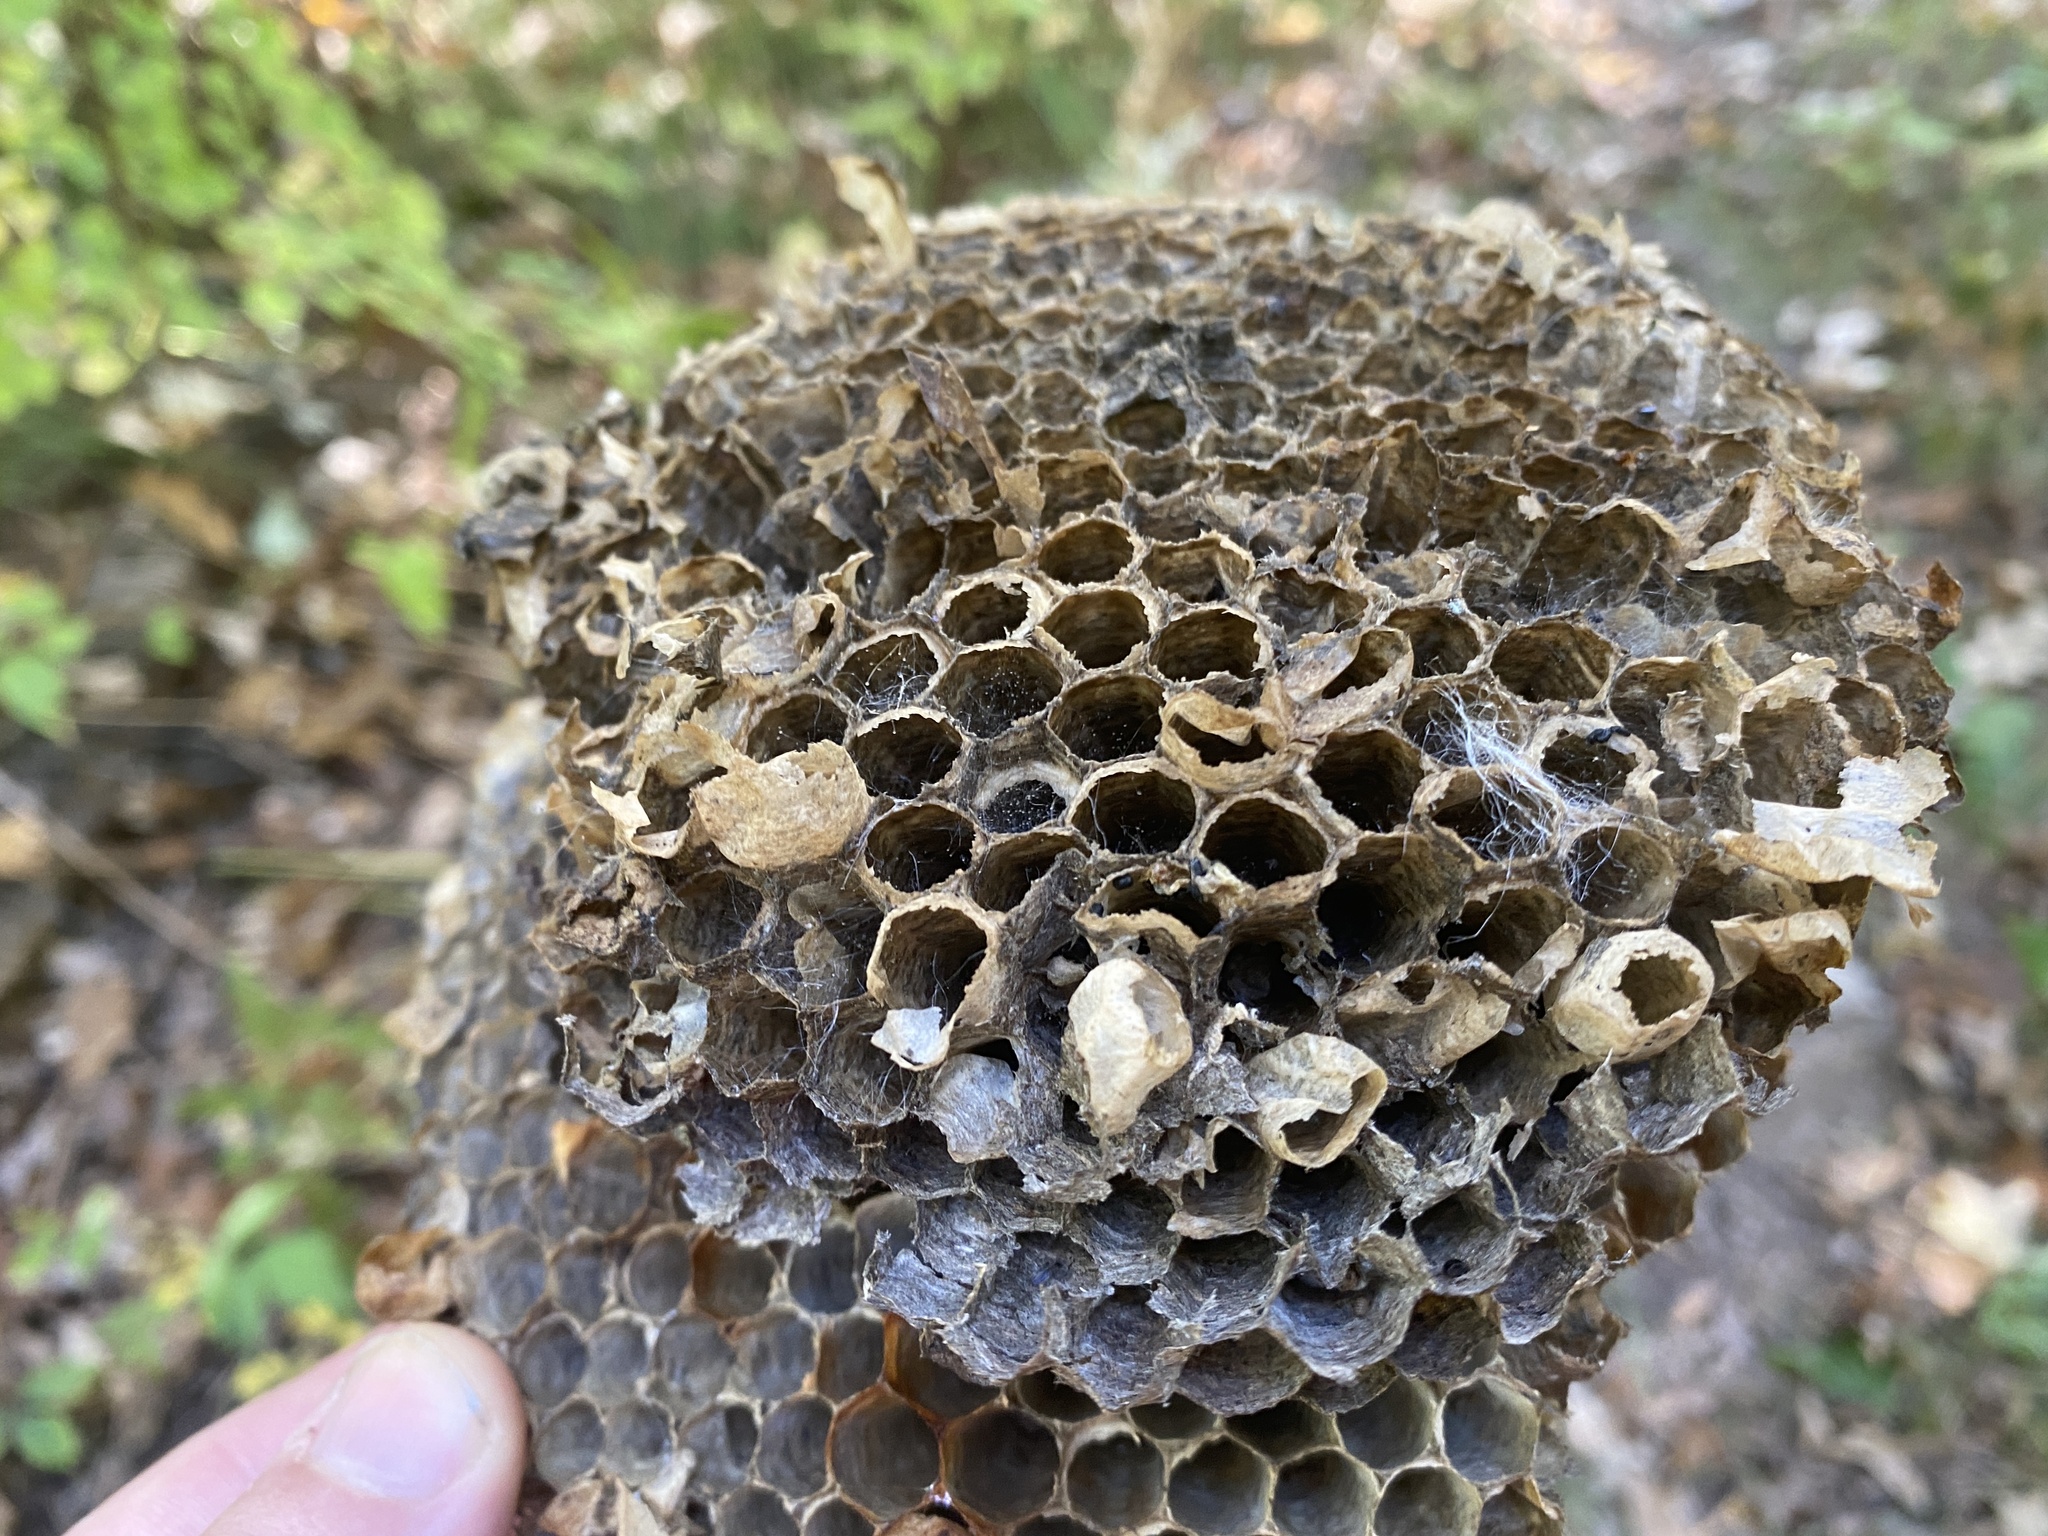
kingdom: Animalia
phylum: Arthropoda
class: Insecta
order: Hymenoptera
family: Vespidae
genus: Dolichovespula
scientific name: Dolichovespula
